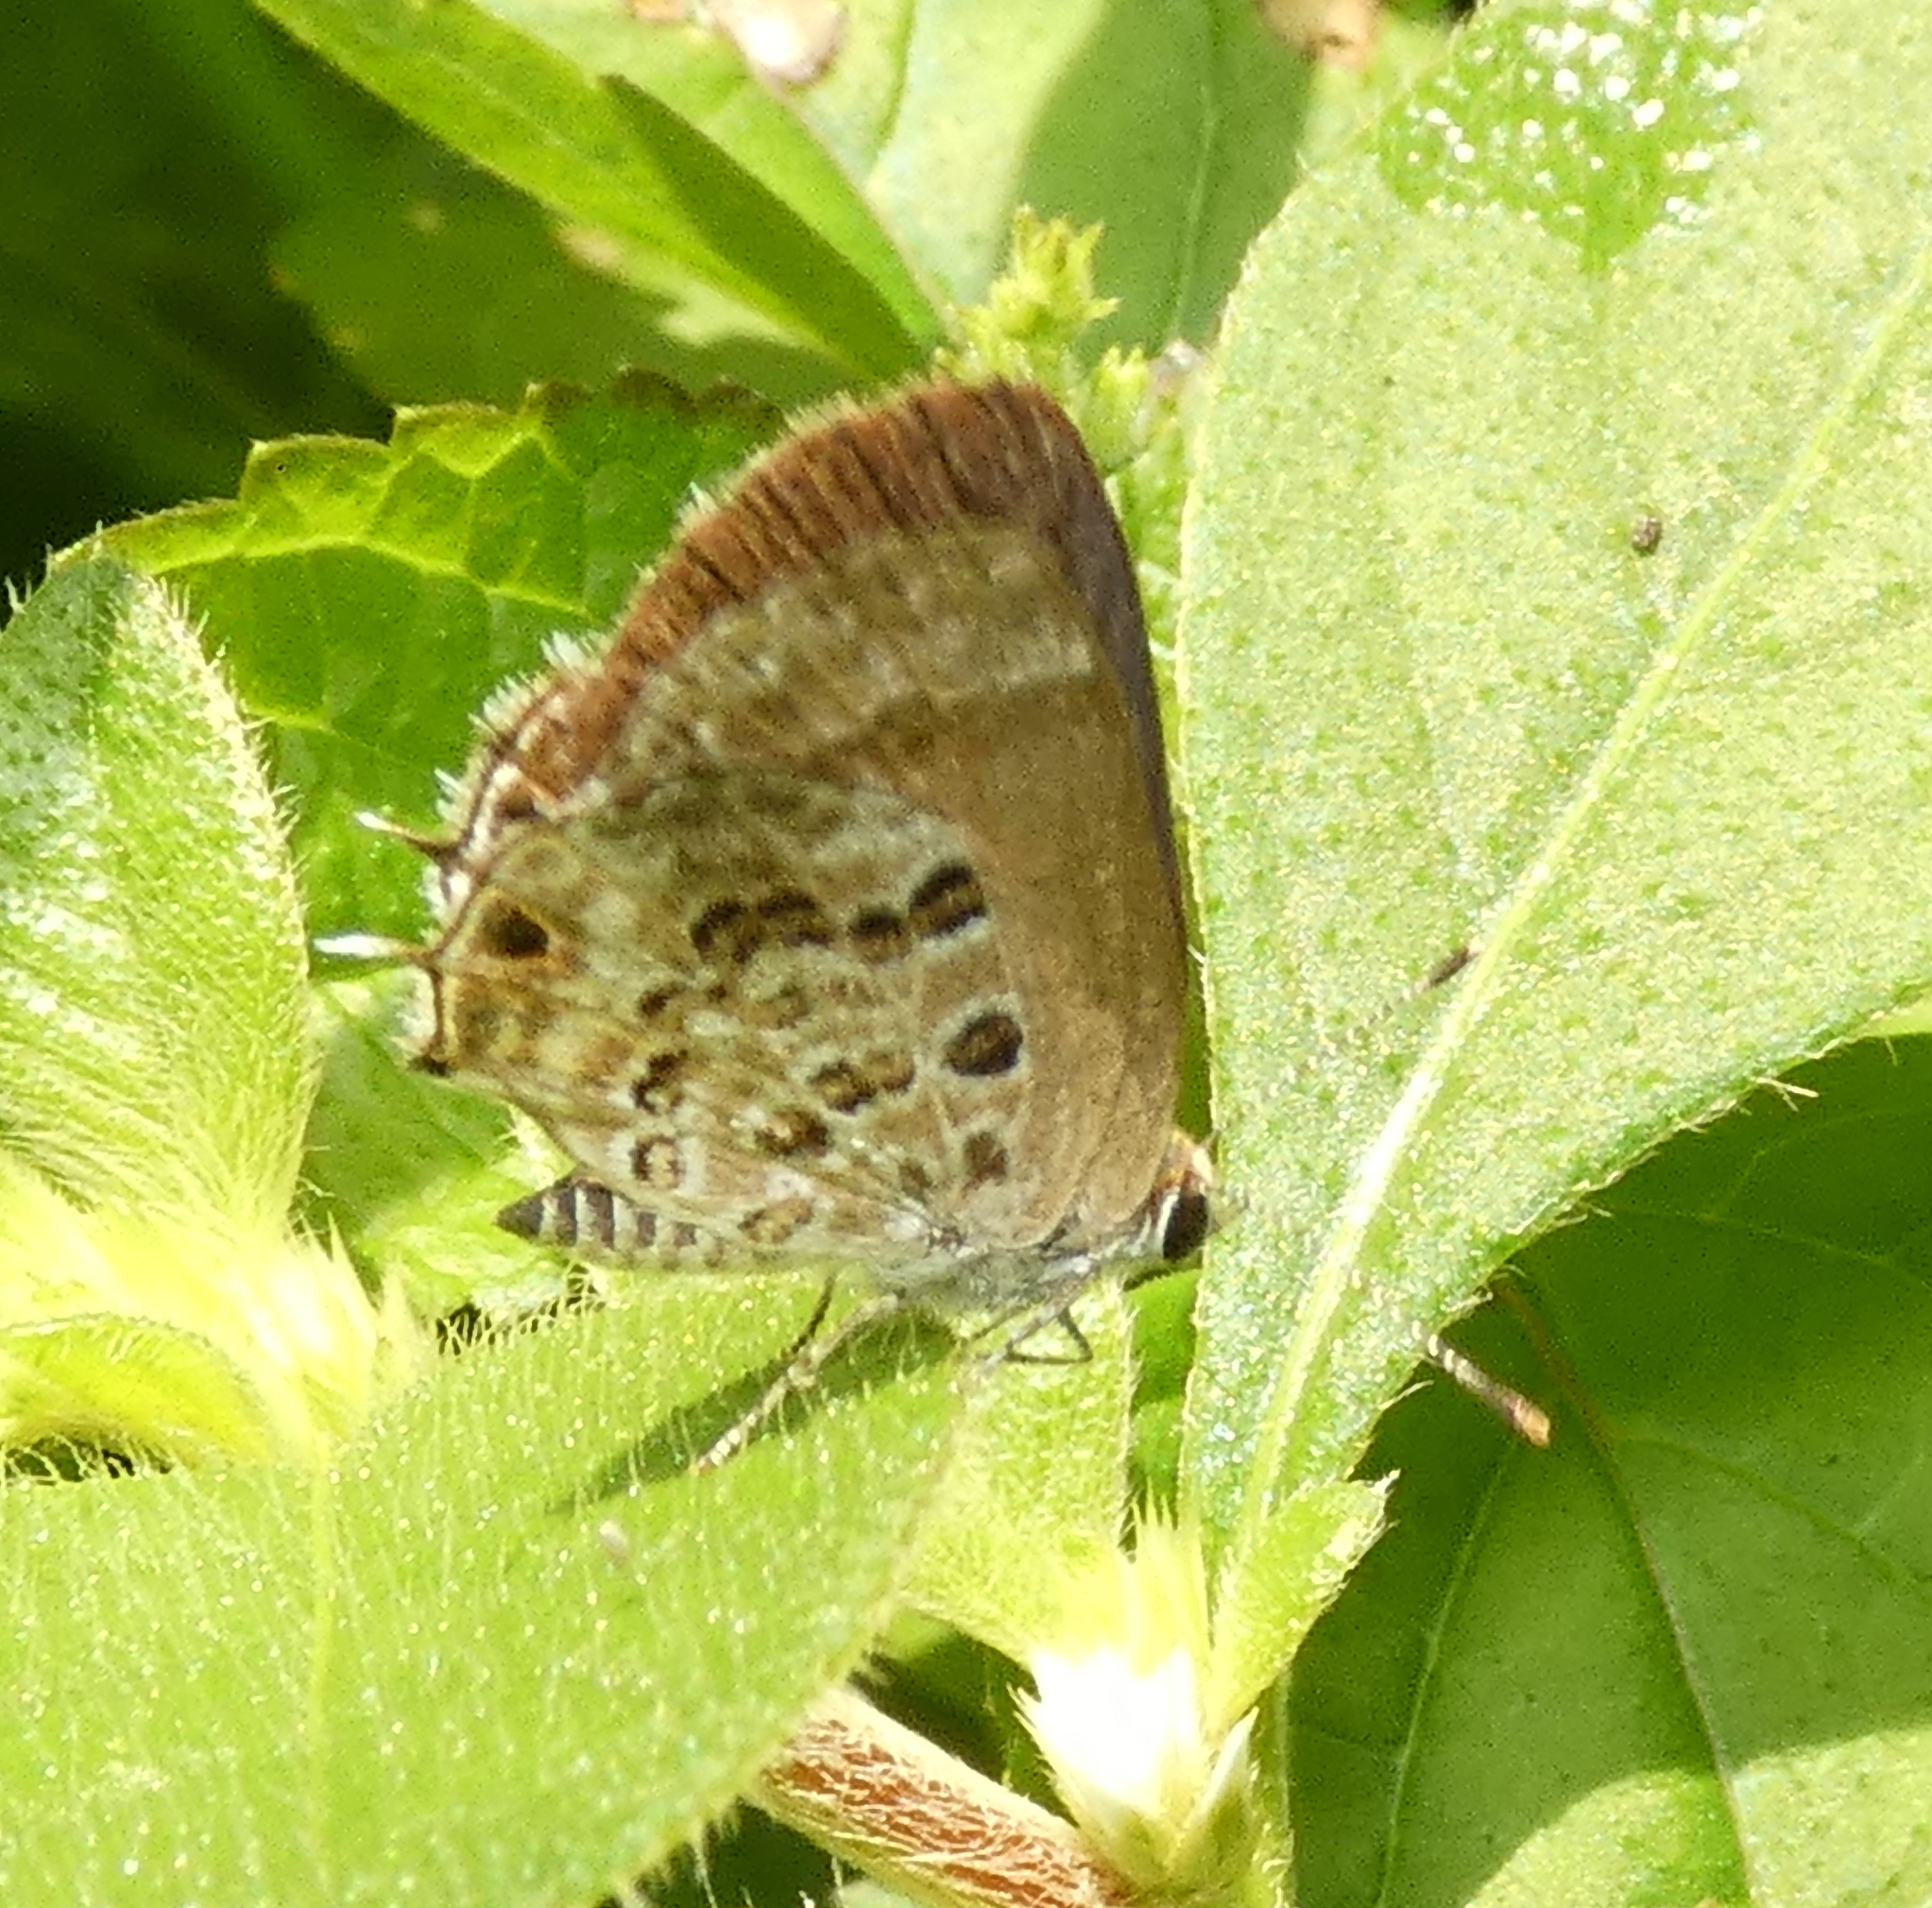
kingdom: Animalia
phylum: Arthropoda
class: Insecta
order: Lepidoptera
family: Lycaenidae
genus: Strymon
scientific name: Strymon astiocha
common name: Gray-spotted scrub-hairstreak
